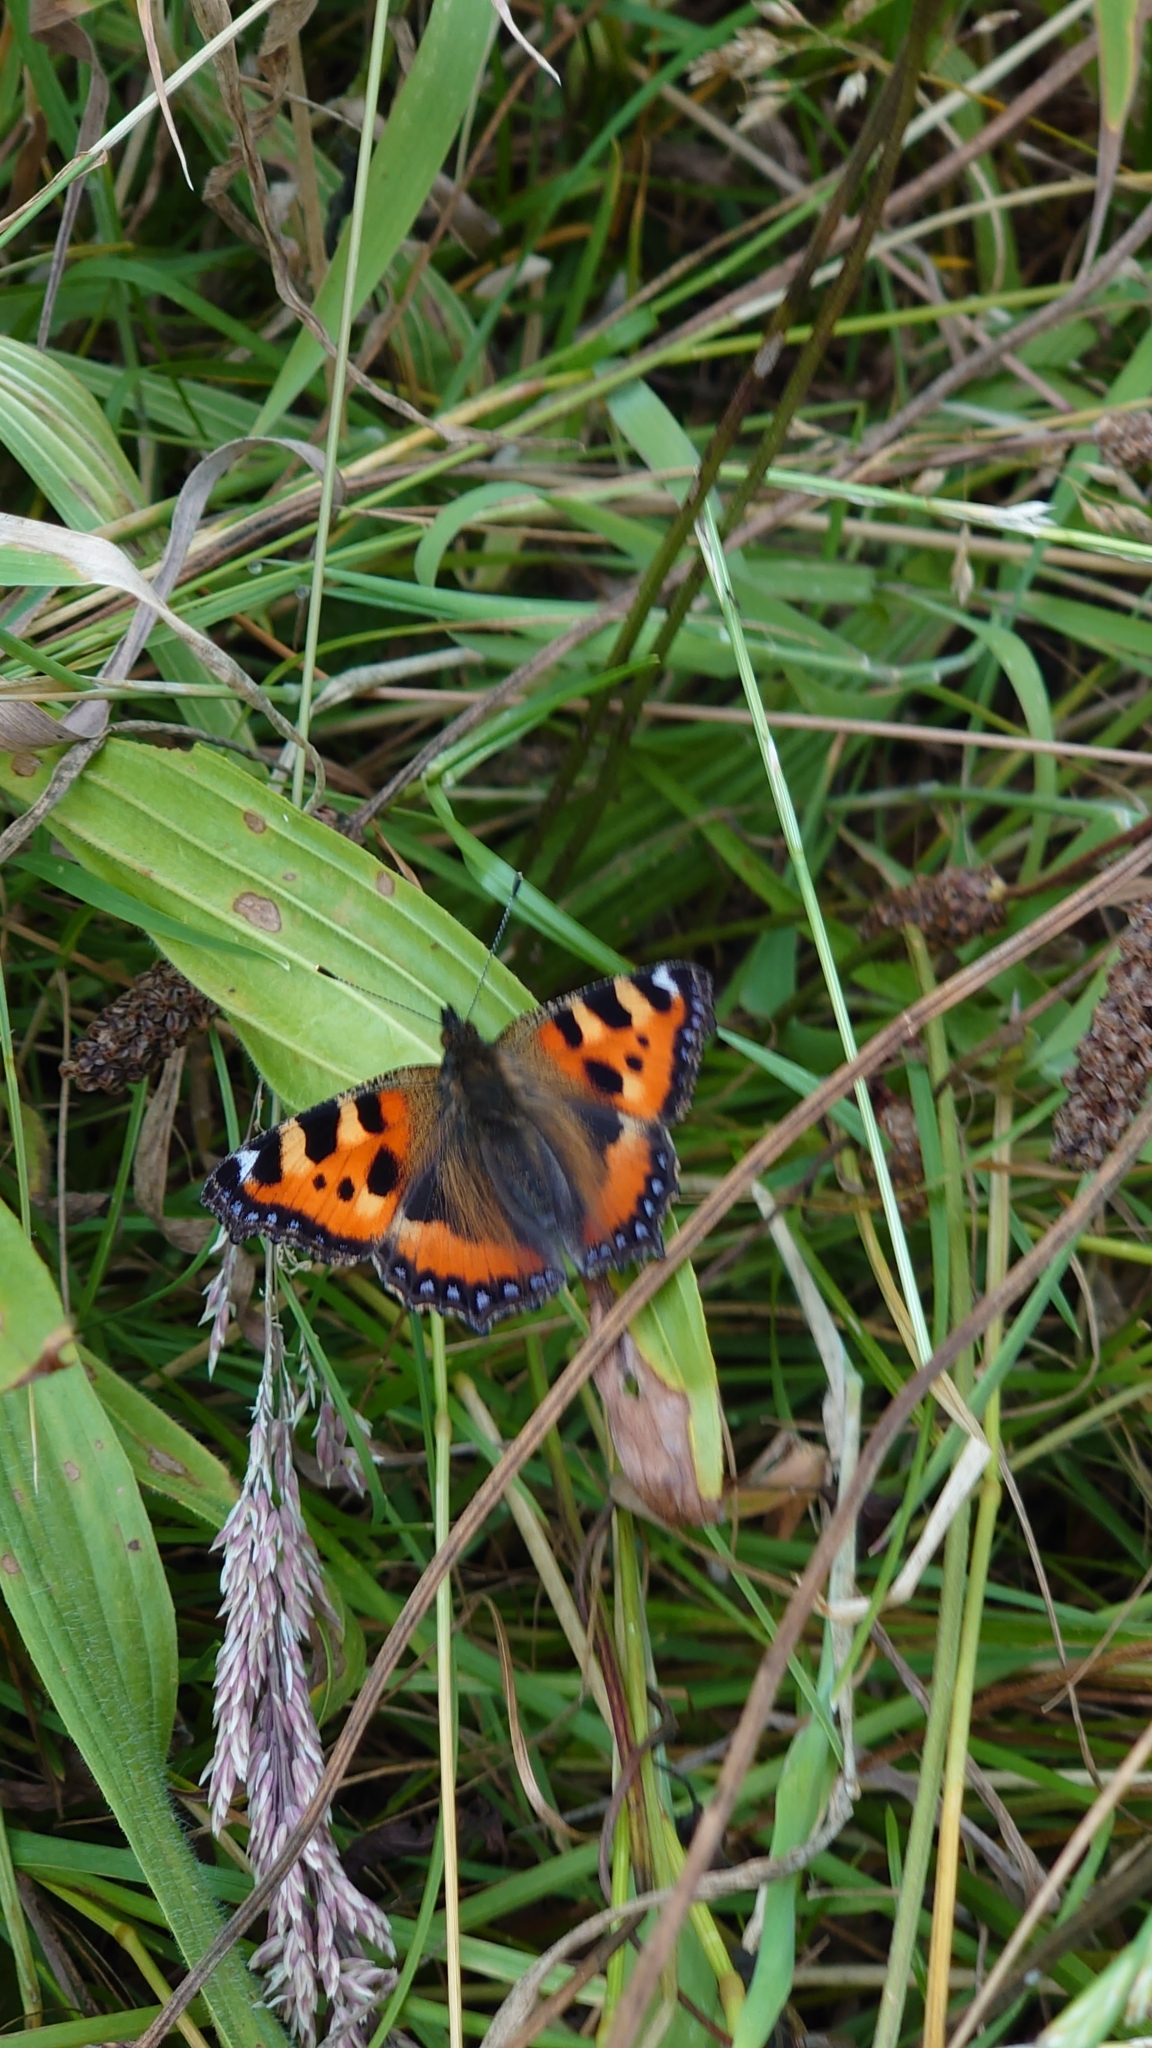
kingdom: Animalia
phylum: Arthropoda
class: Insecta
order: Lepidoptera
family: Nymphalidae
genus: Aglais
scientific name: Aglais urticae
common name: Small tortoiseshell
